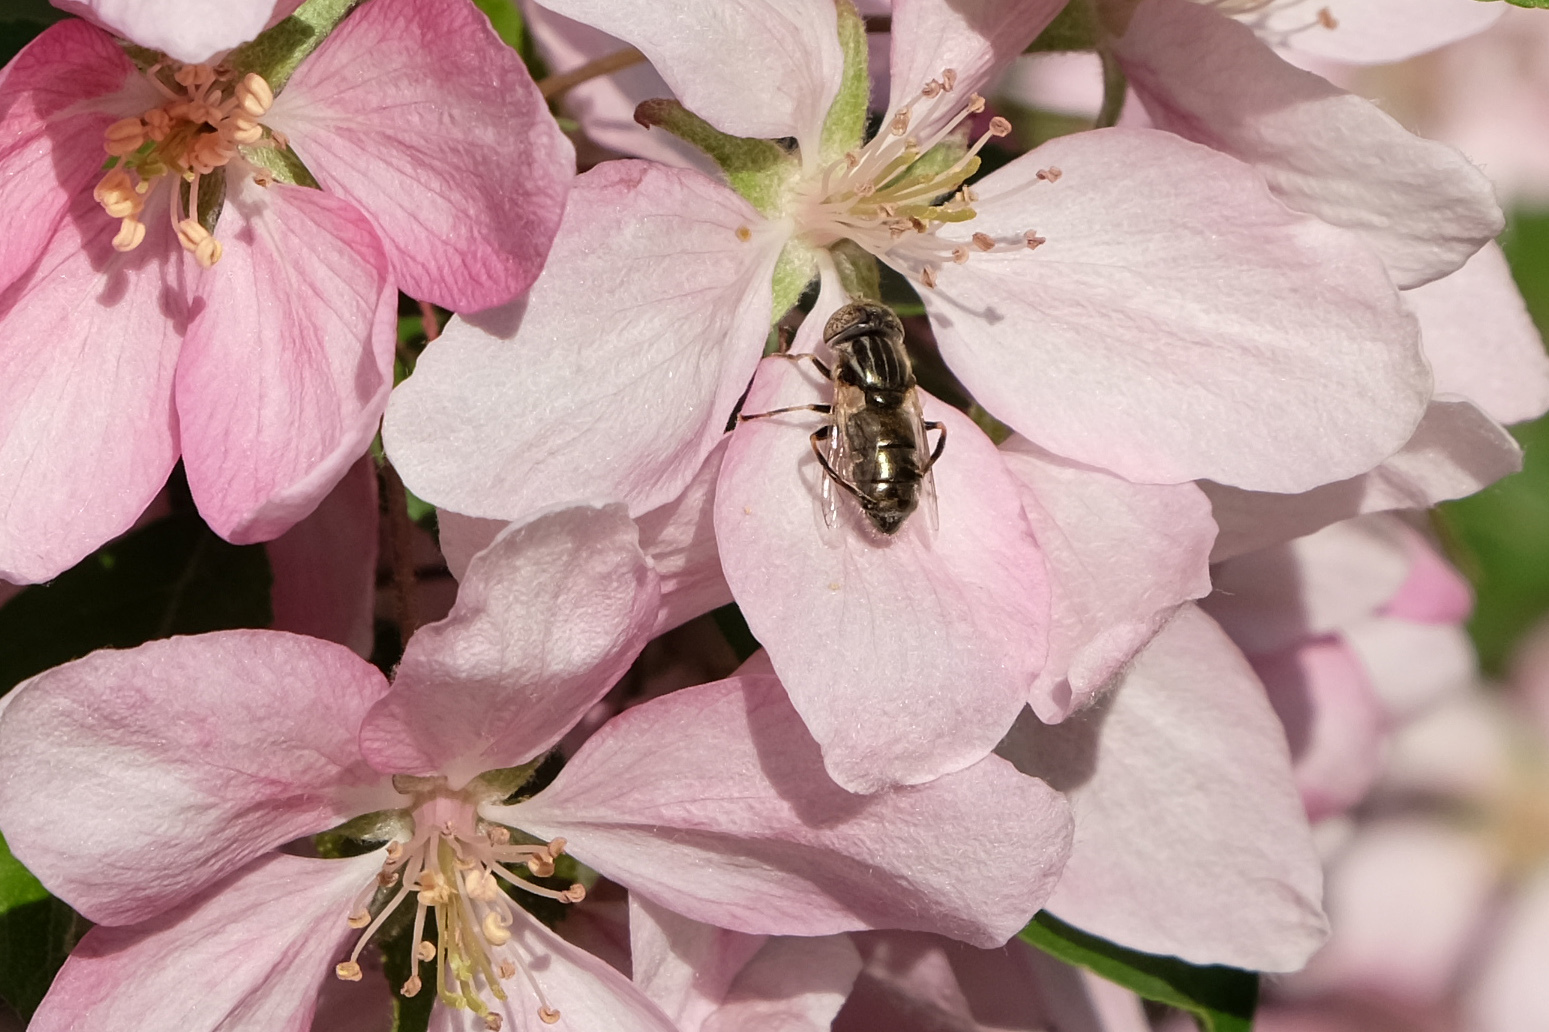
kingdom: Animalia
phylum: Arthropoda
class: Insecta
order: Diptera
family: Syrphidae
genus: Eristalinus
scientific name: Eristalinus aeneus
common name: Syrphid fly
